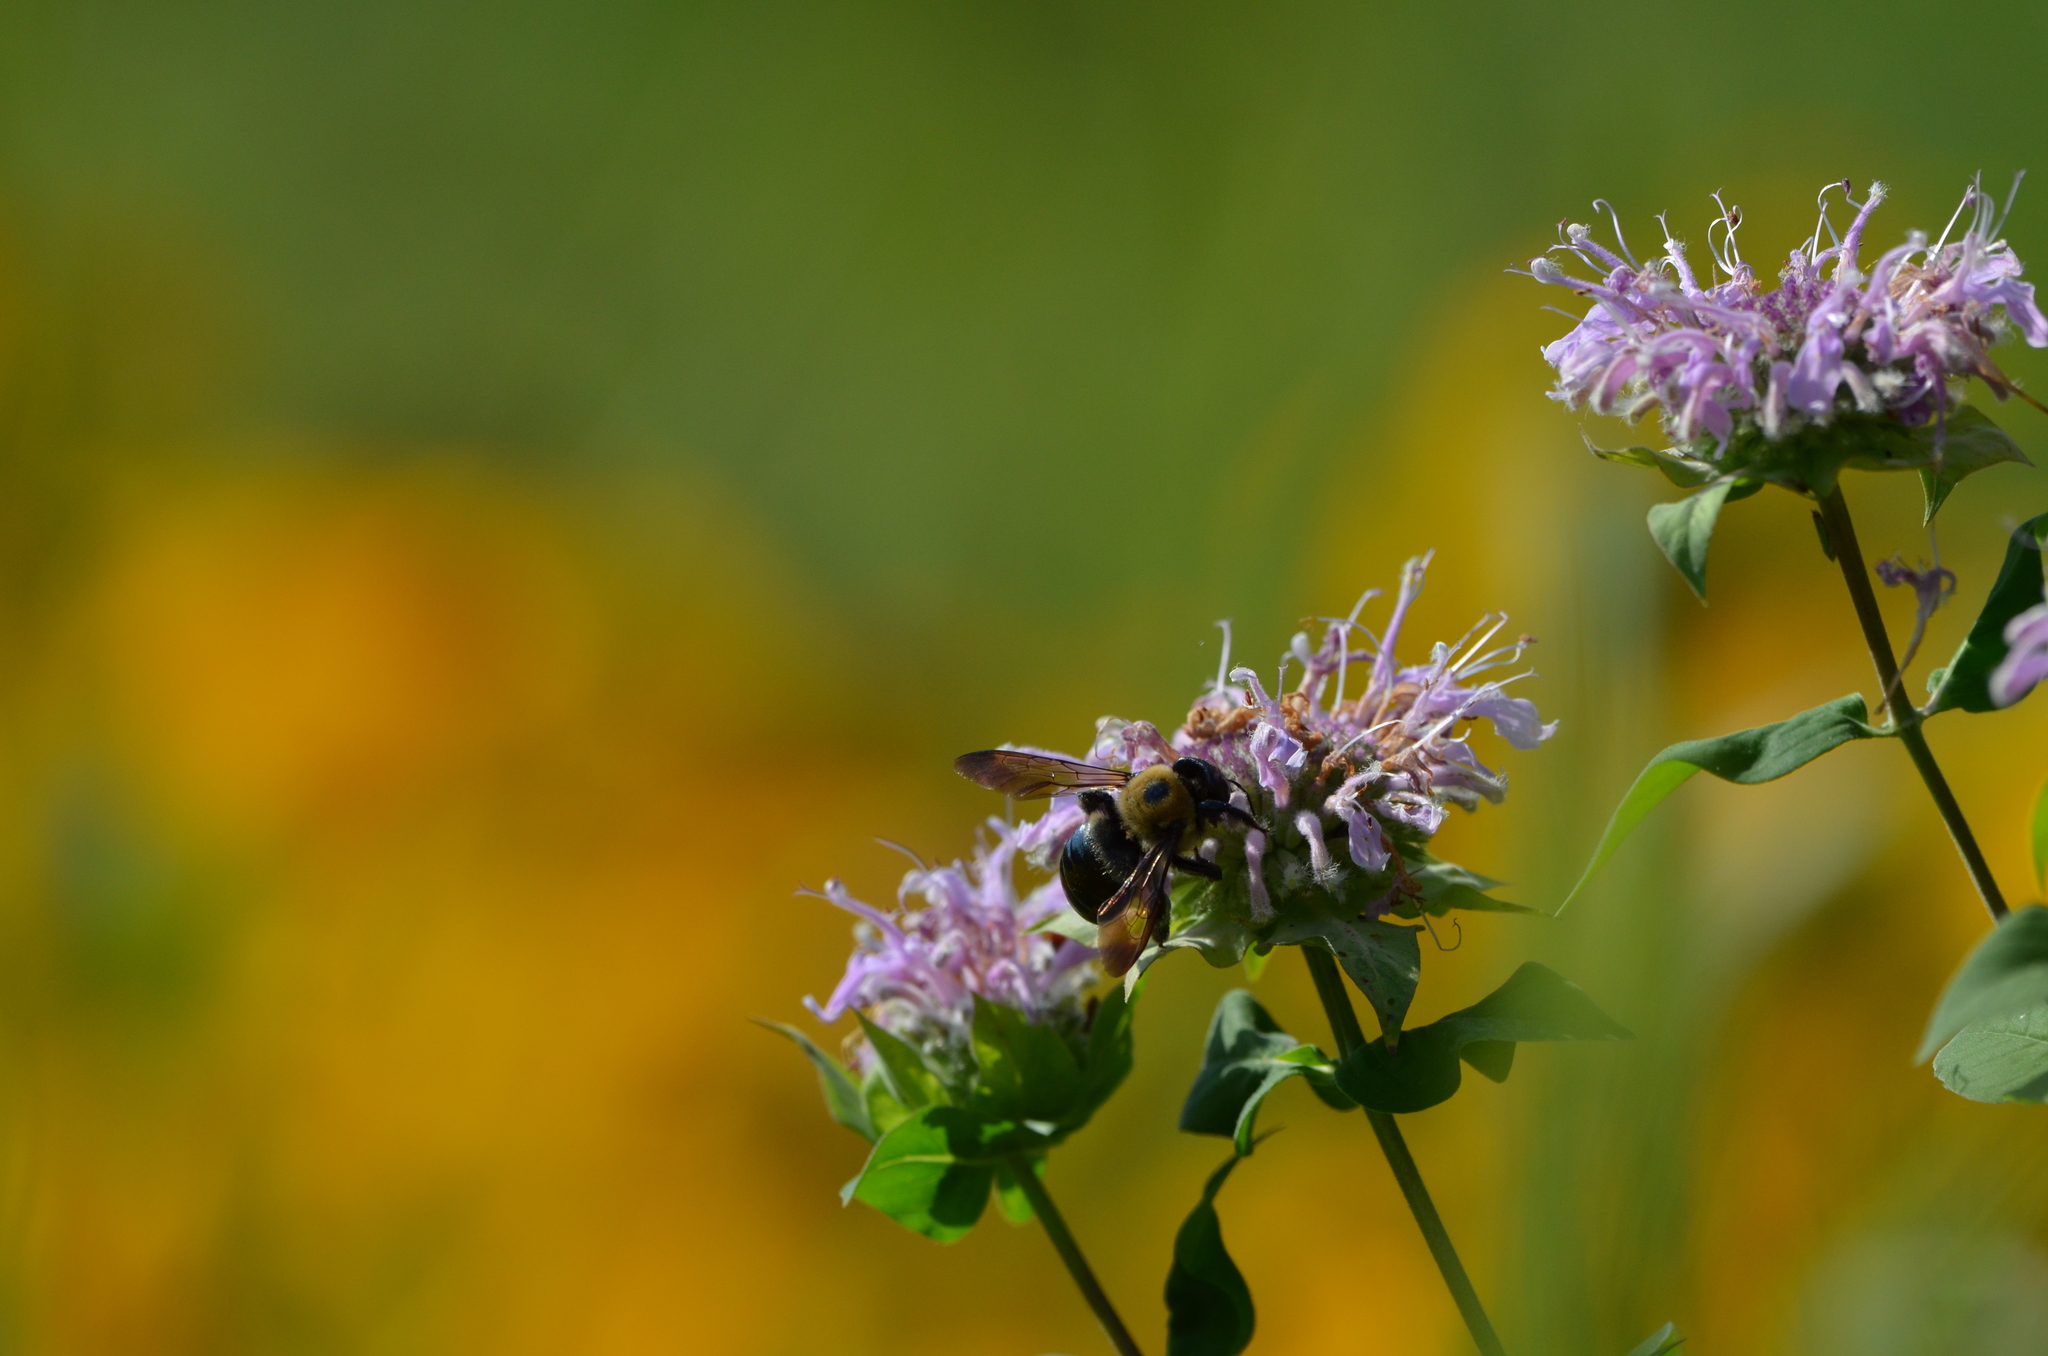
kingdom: Animalia
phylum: Arthropoda
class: Insecta
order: Hymenoptera
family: Apidae
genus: Xylocopa
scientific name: Xylocopa virginica
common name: Carpenter bee
